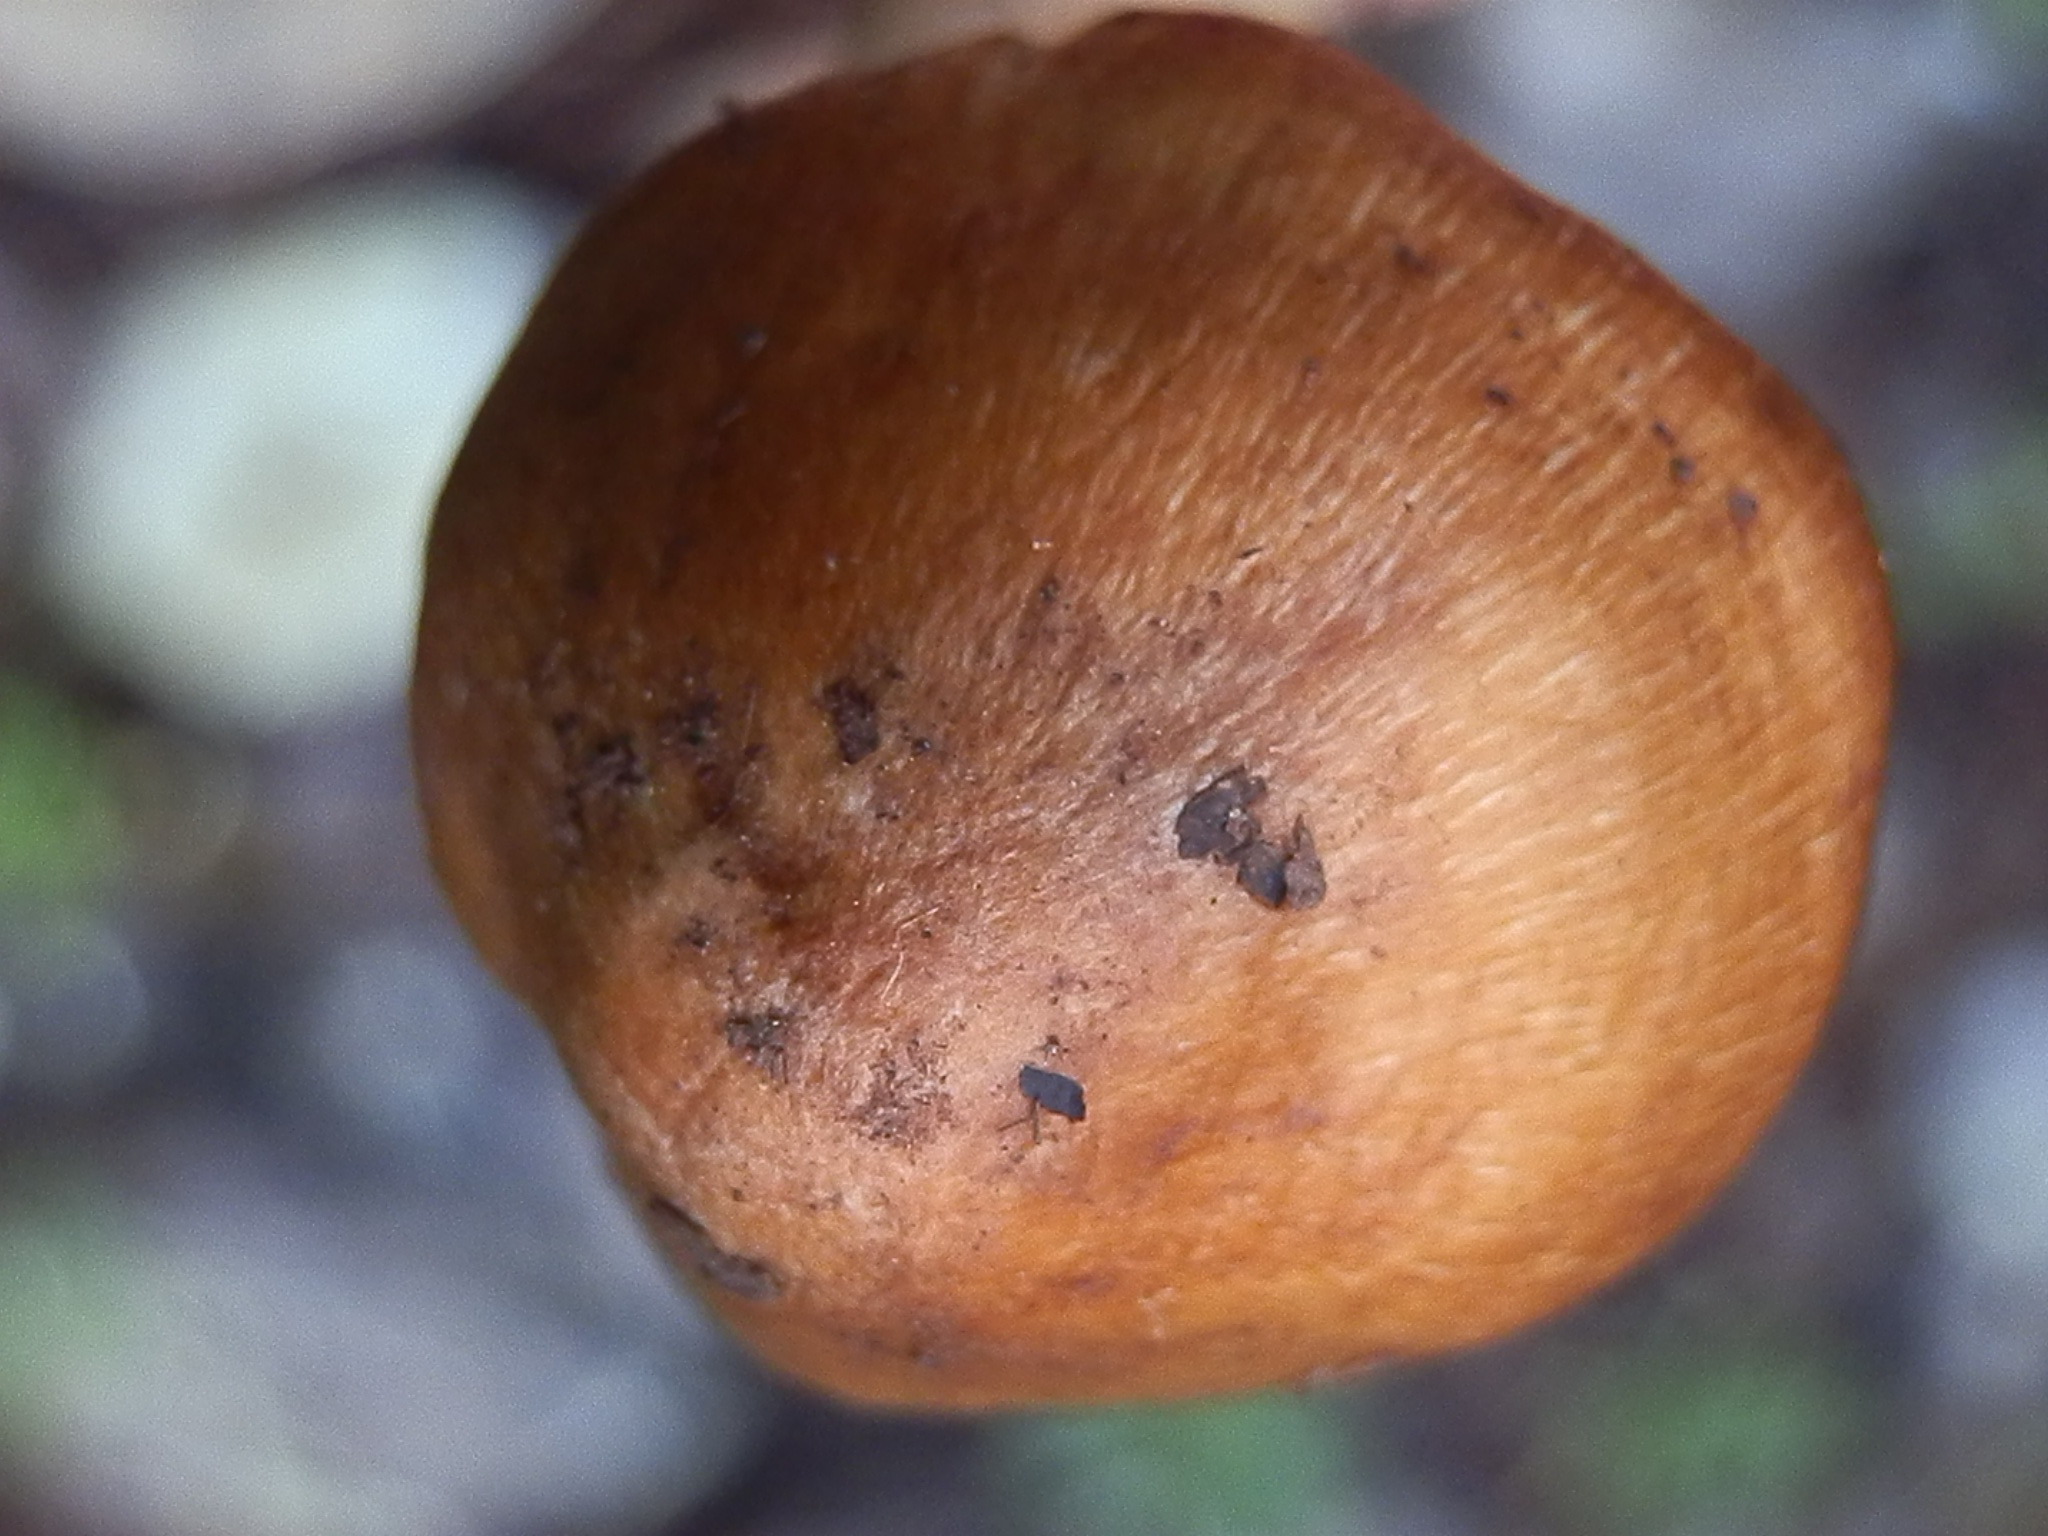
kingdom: Fungi
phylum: Basidiomycota
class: Agaricomycetes
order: Agaricales
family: Inocybaceae
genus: Inosperma
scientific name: Inosperma lanatodiscum
